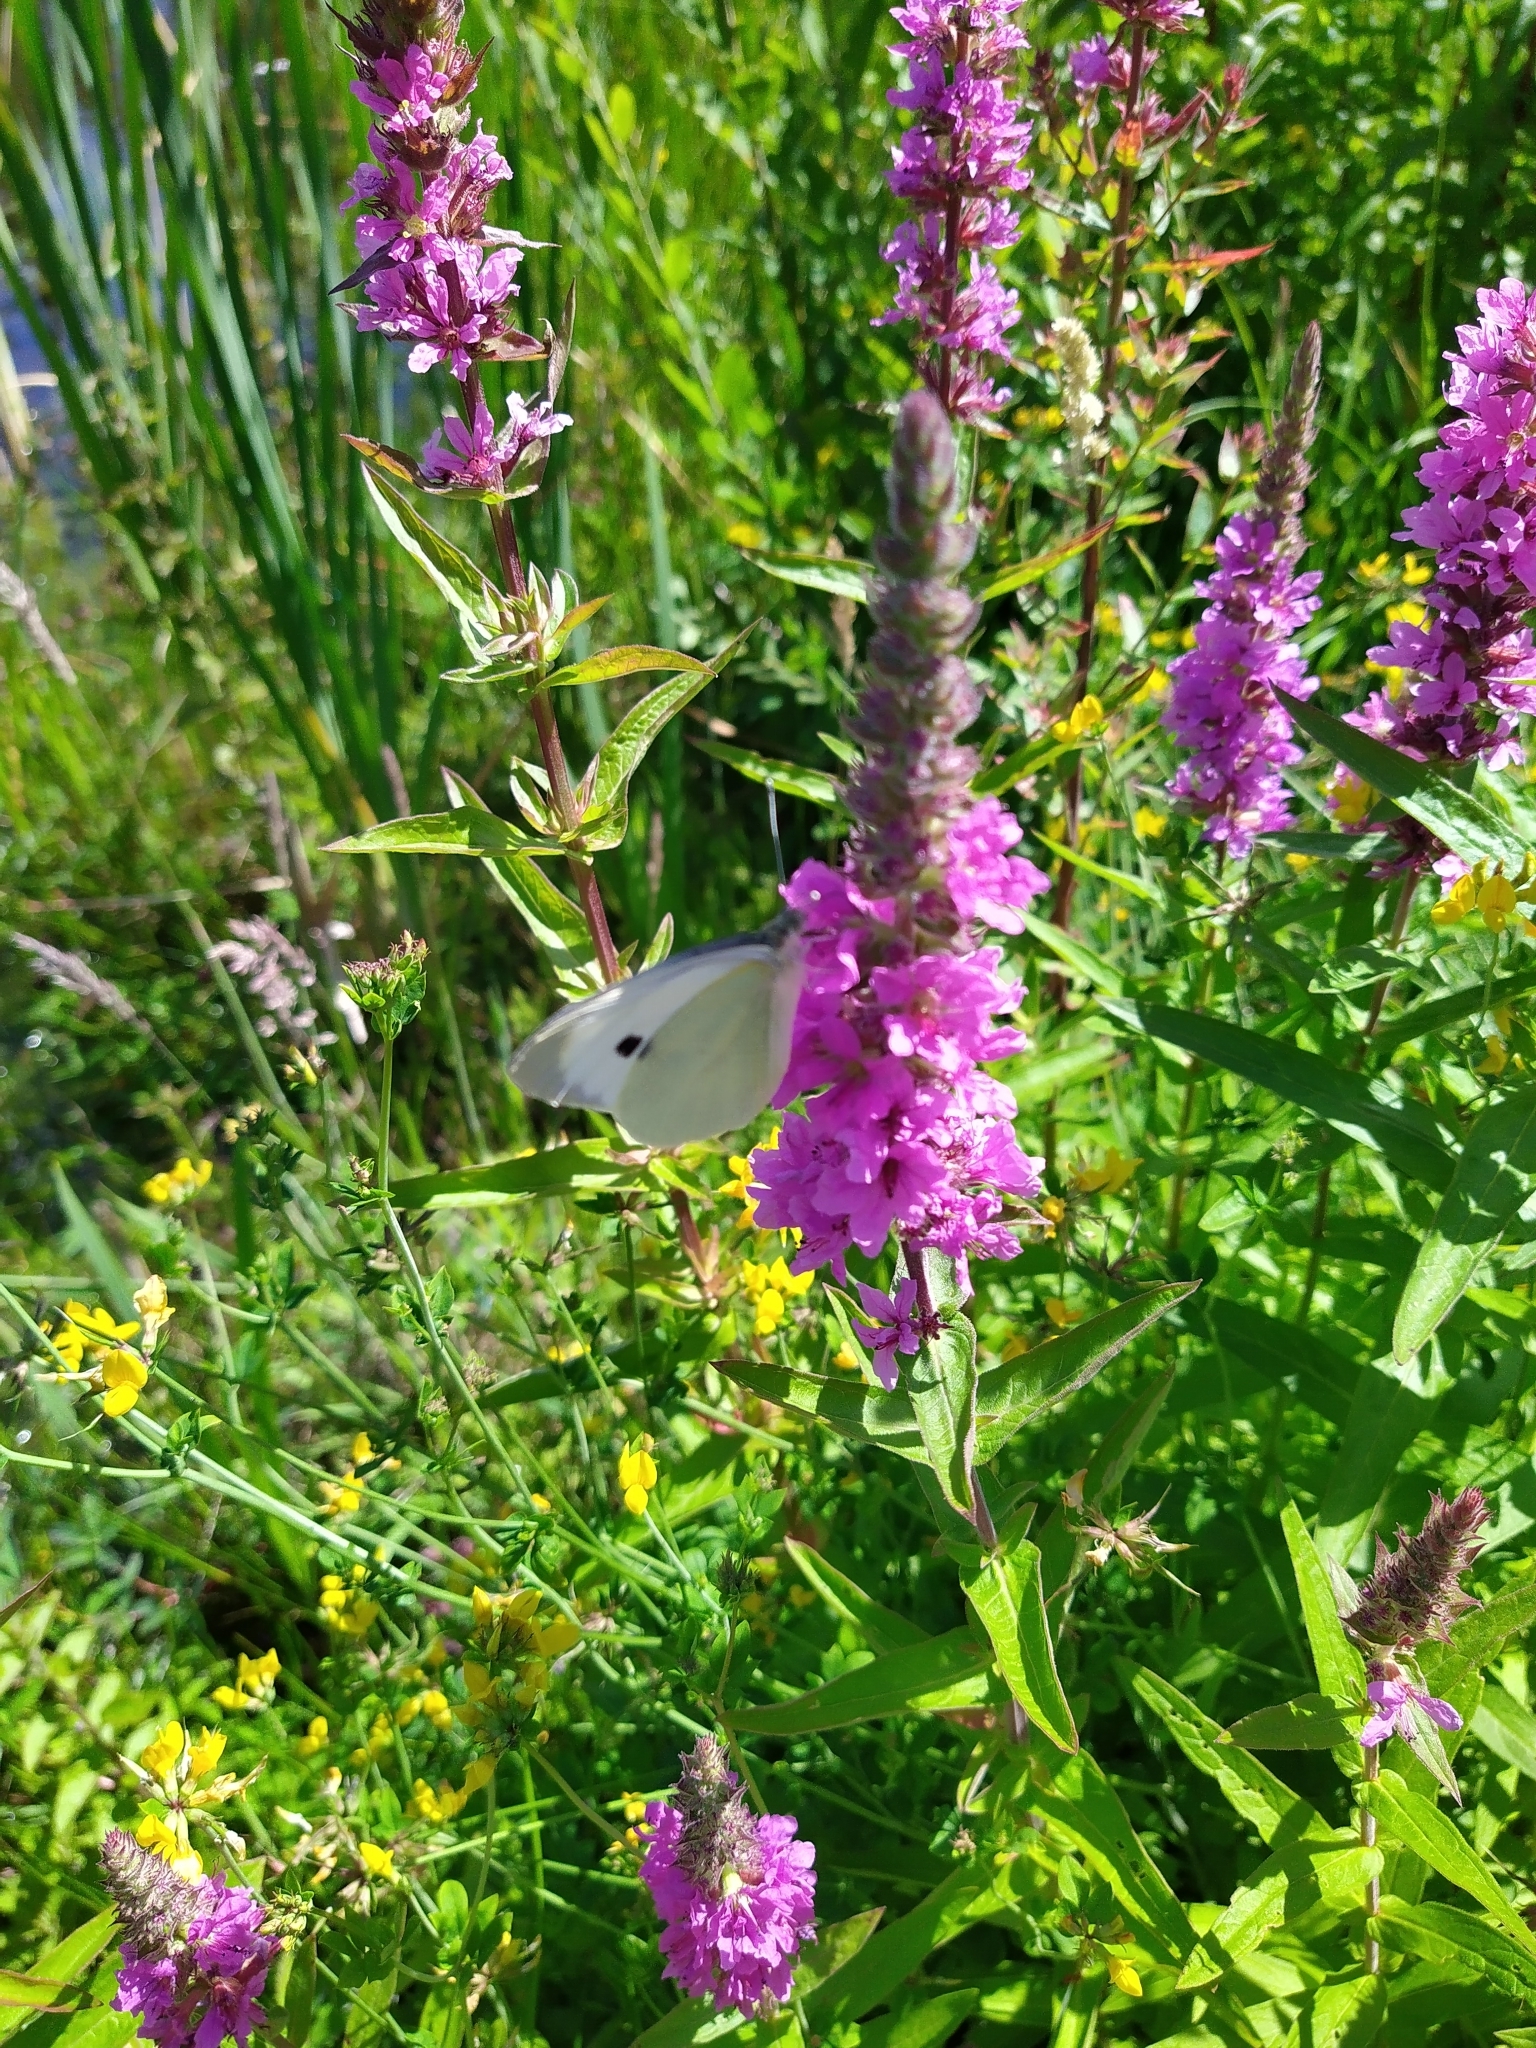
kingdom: Animalia
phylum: Arthropoda
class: Insecta
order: Lepidoptera
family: Pieridae
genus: Pieris
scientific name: Pieris brassicae
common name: Large white
